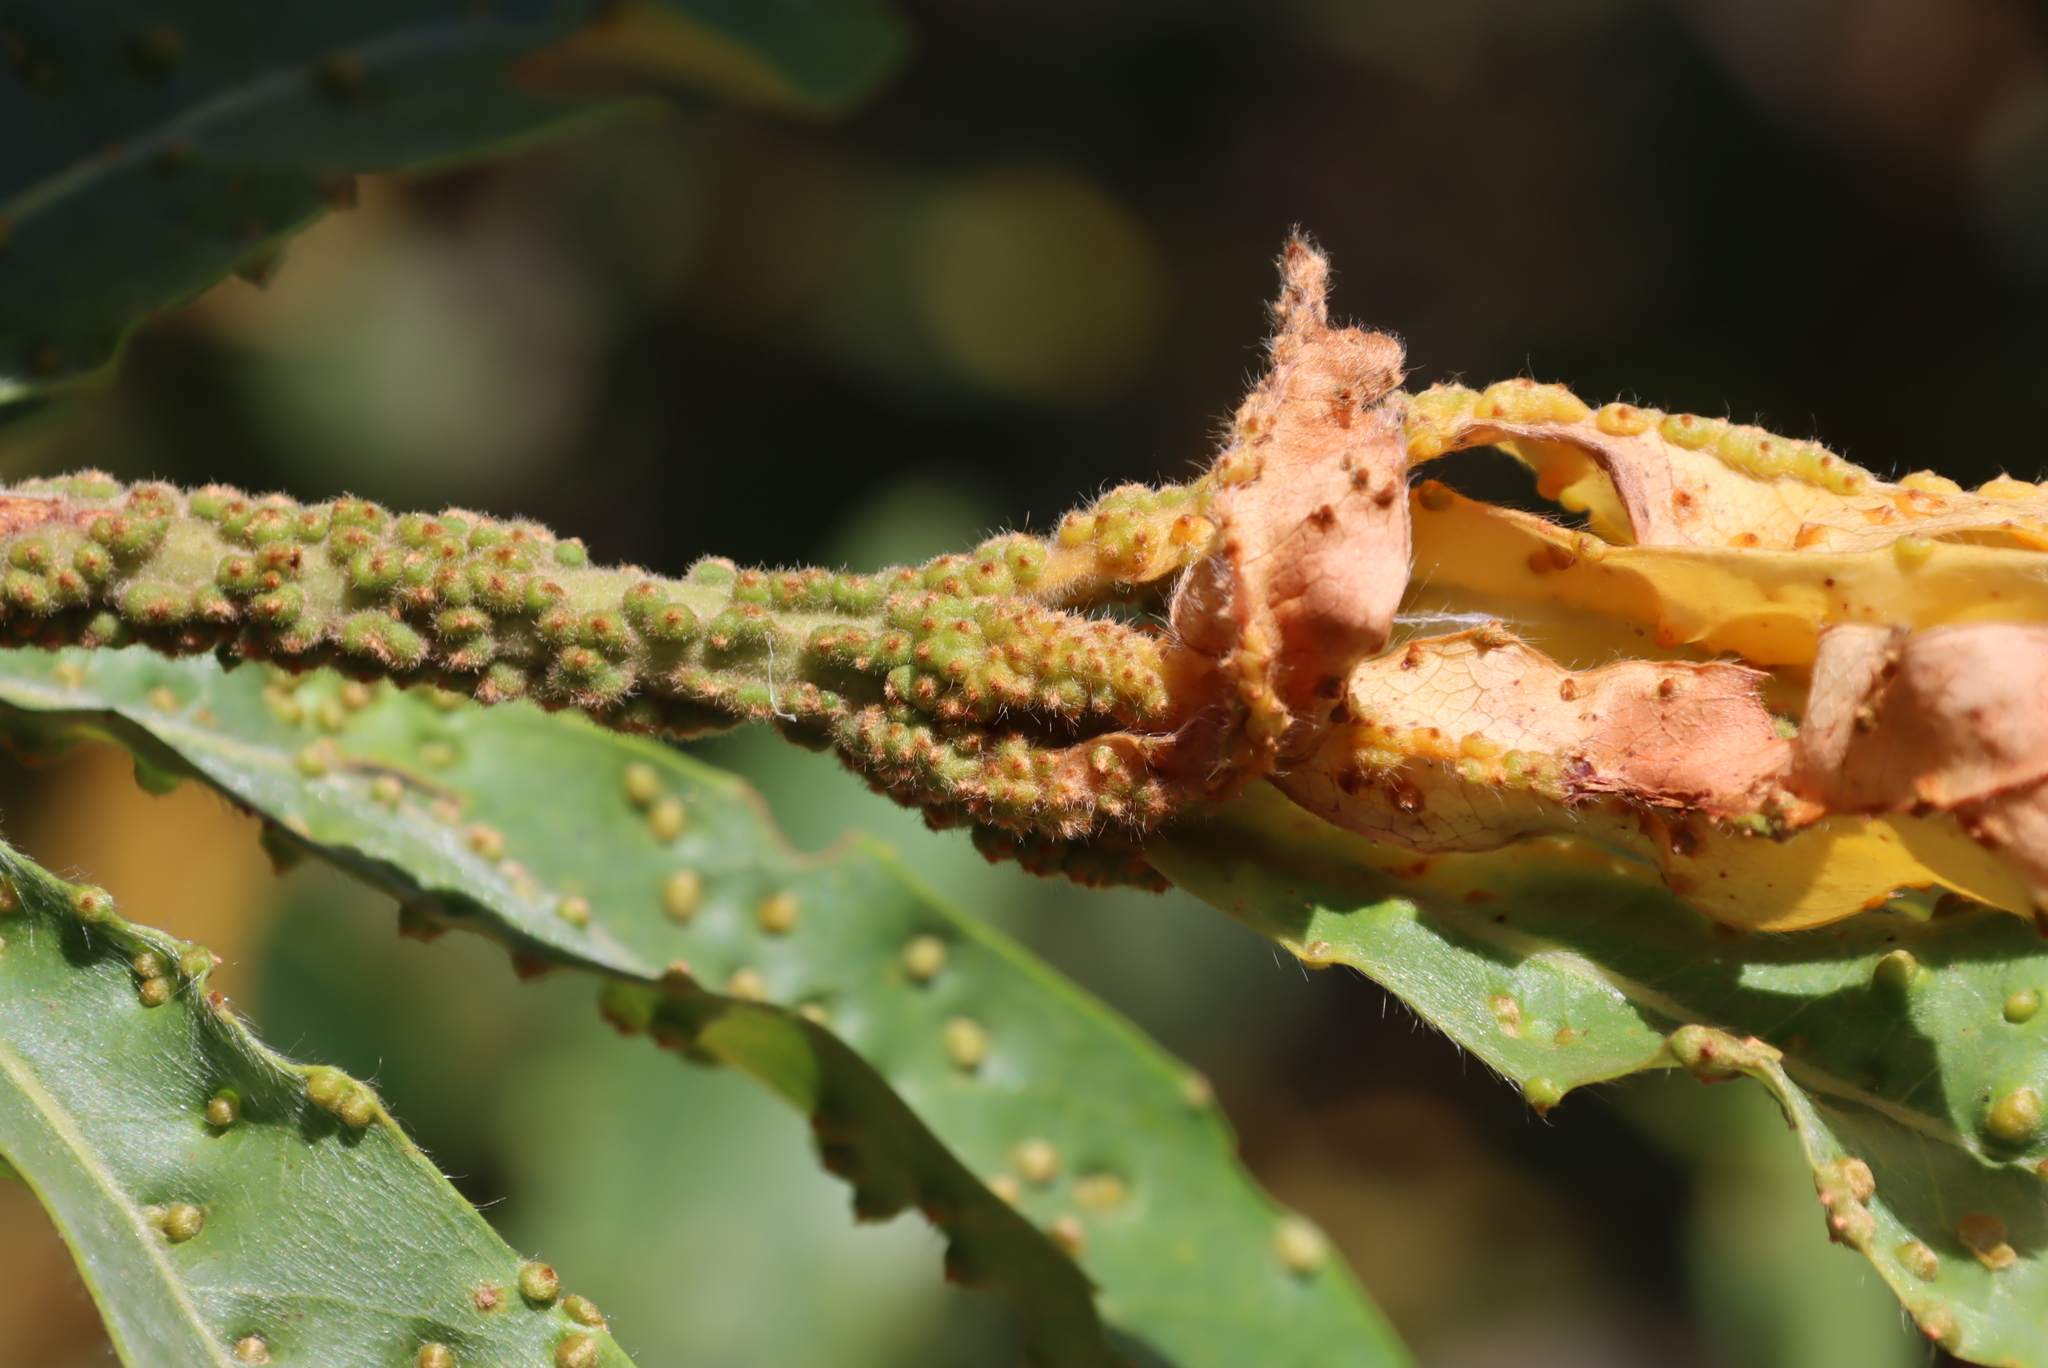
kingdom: Animalia
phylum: Arthropoda
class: Arachnida
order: Trombidiformes
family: Eriophyidae
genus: Aceria
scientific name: Aceria
